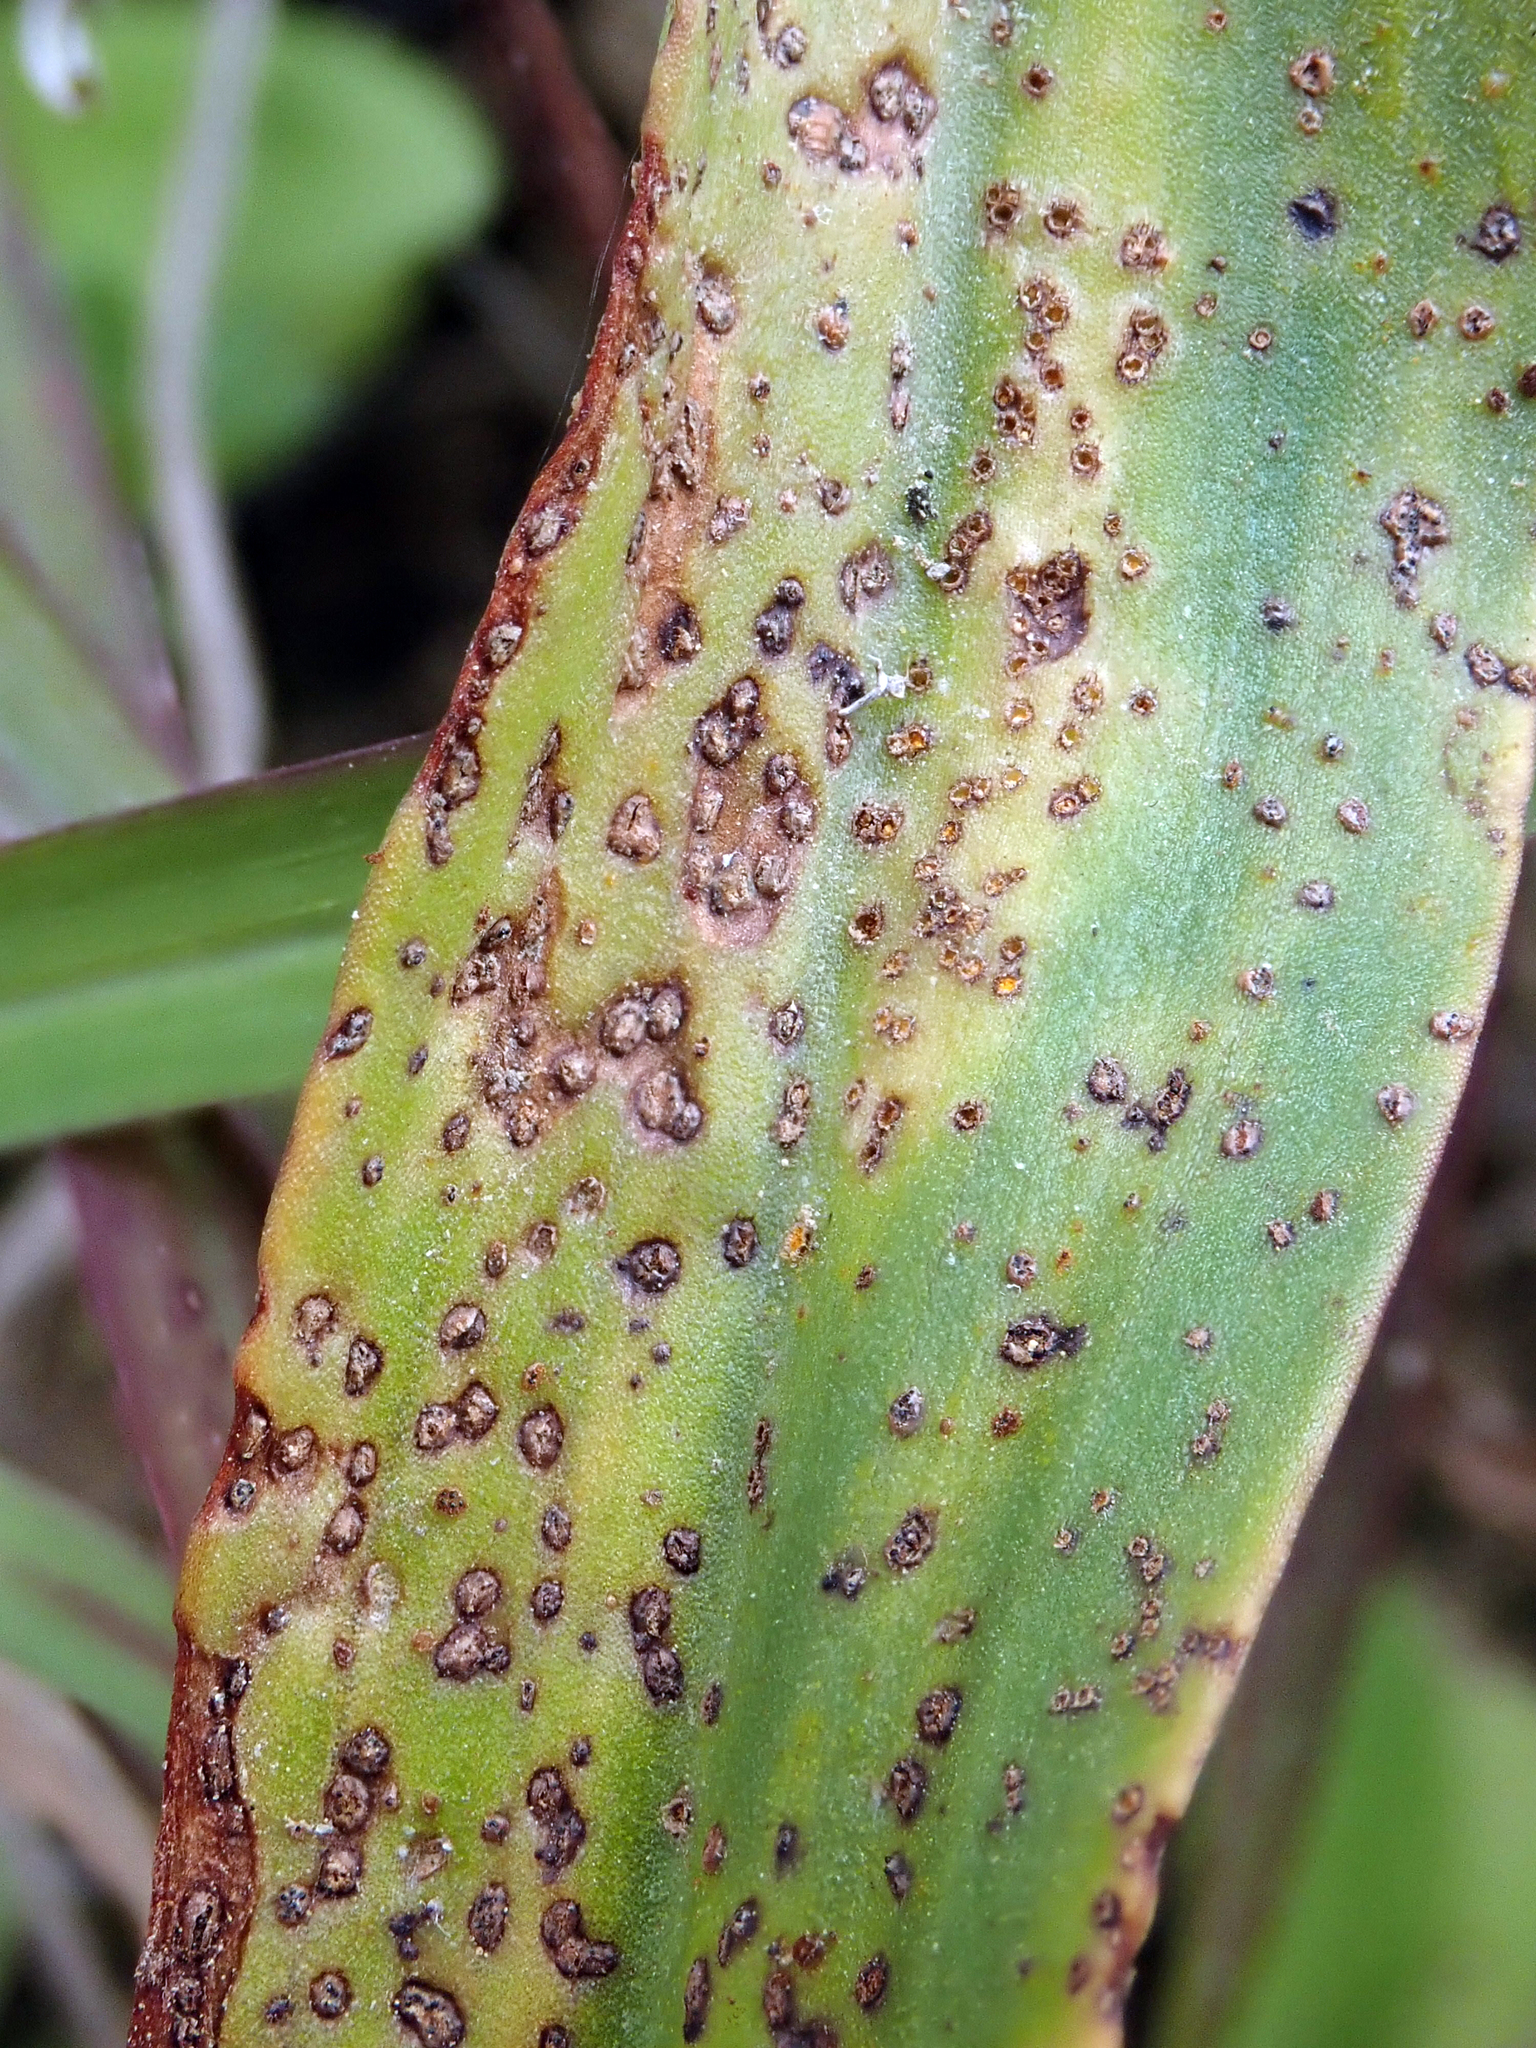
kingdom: Fungi
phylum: Basidiomycota
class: Pucciniomycetes
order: Pucciniales
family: Pucciniaceae
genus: Uromyces
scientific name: Uromyces thelymitrae
